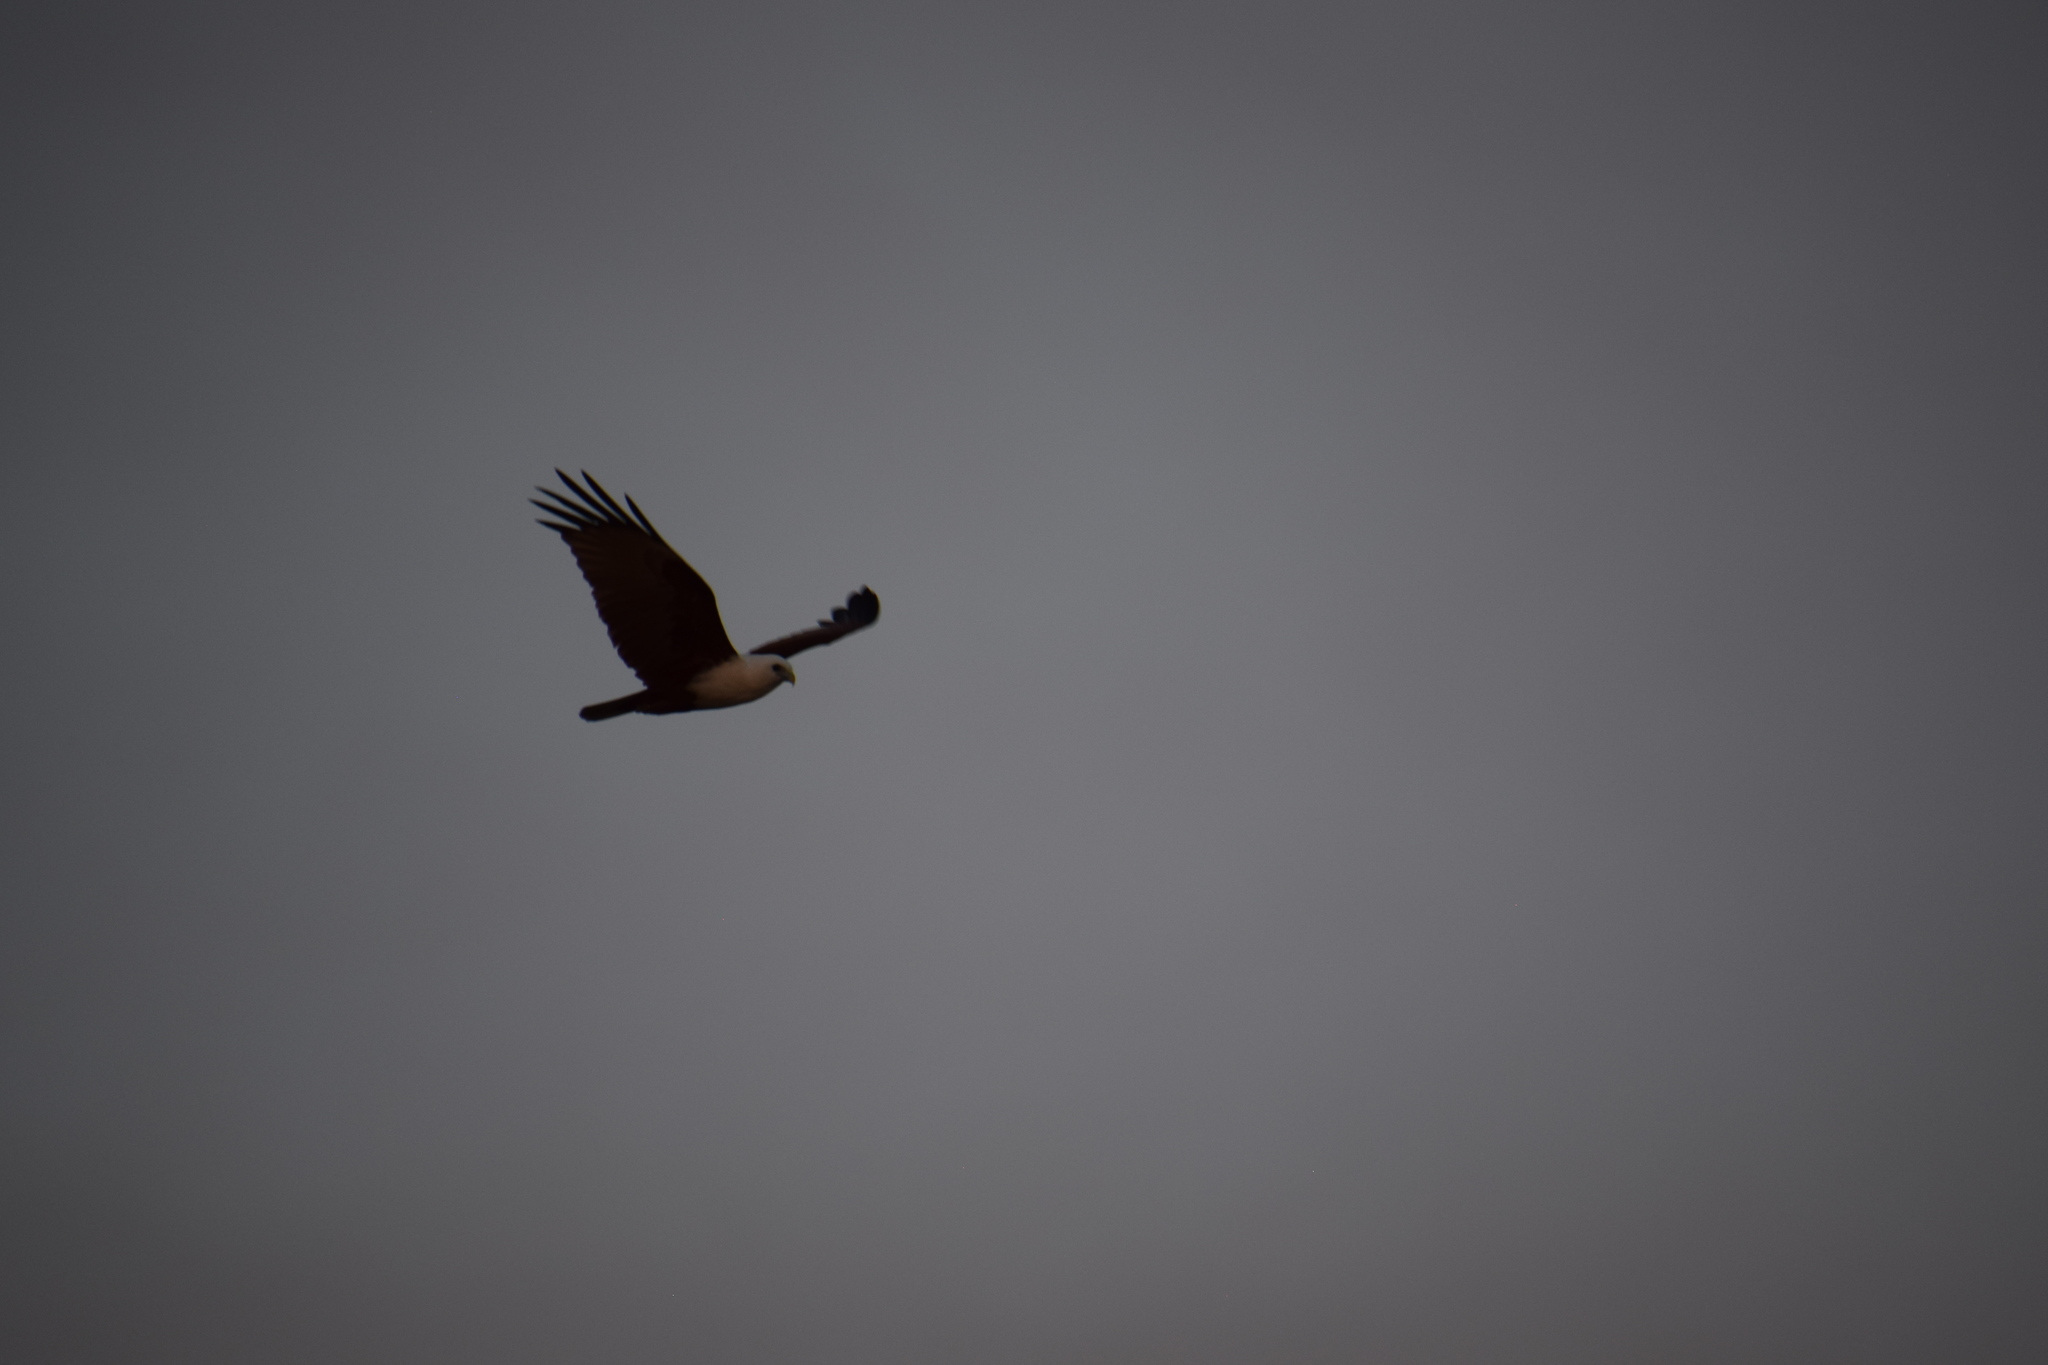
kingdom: Animalia
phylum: Chordata
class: Aves
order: Accipitriformes
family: Accipitridae
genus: Haliastur
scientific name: Haliastur indus
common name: Brahminy kite
